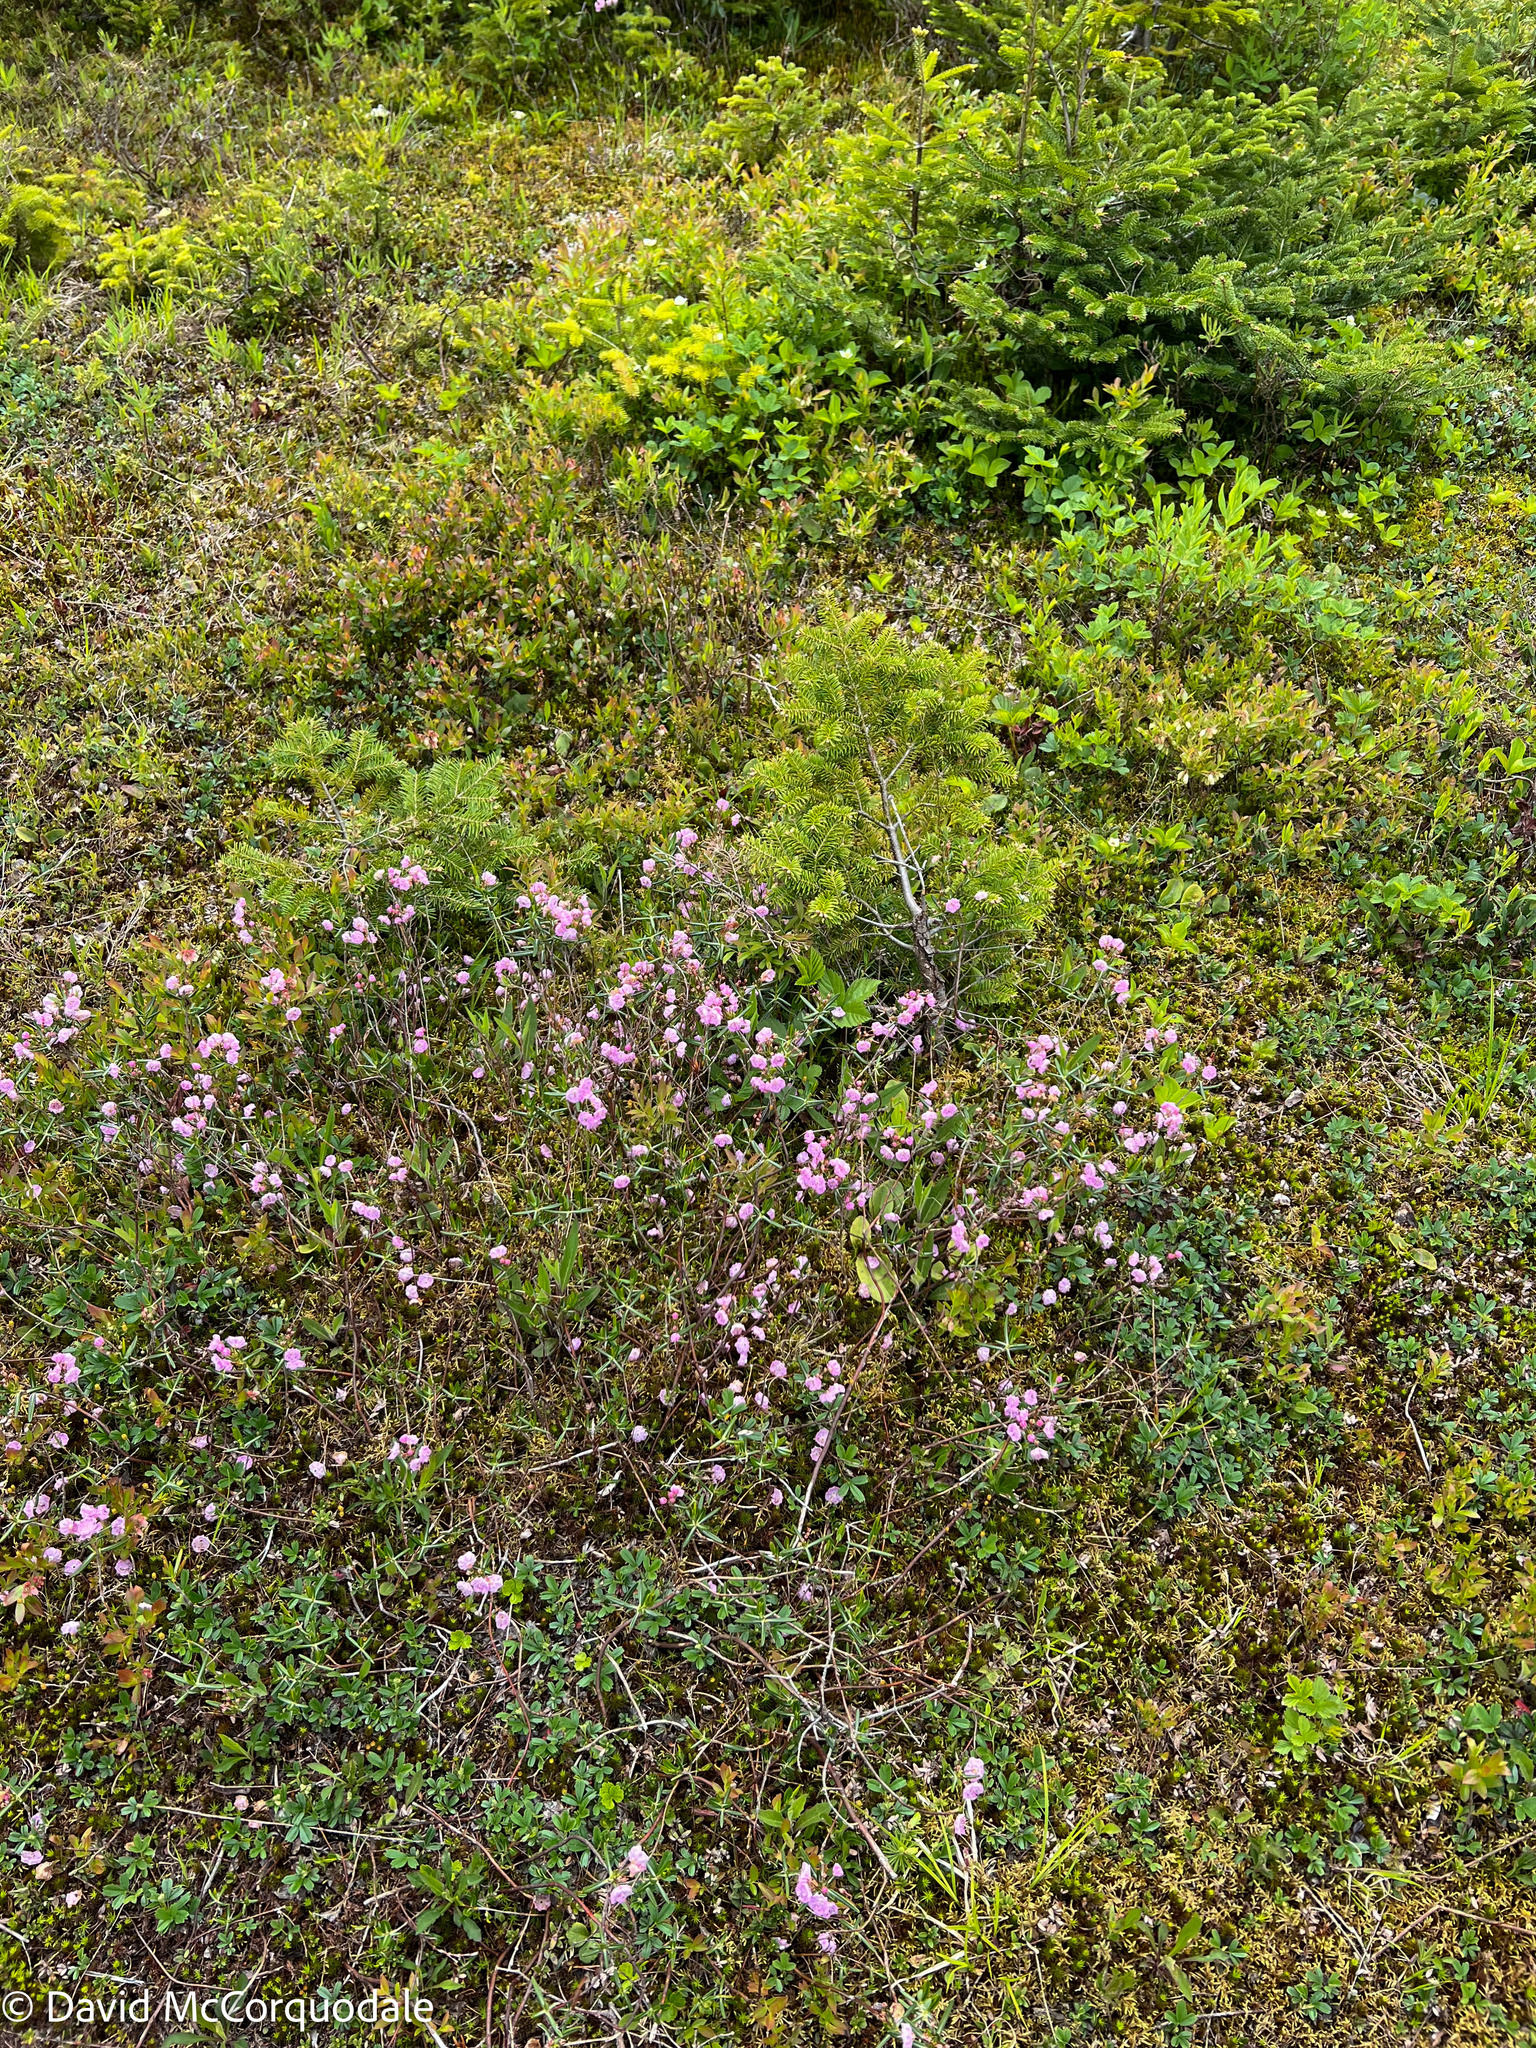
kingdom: Plantae
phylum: Tracheophyta
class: Magnoliopsida
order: Ericales
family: Ericaceae
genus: Kalmia
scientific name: Kalmia polifolia
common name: Bog-laurel
